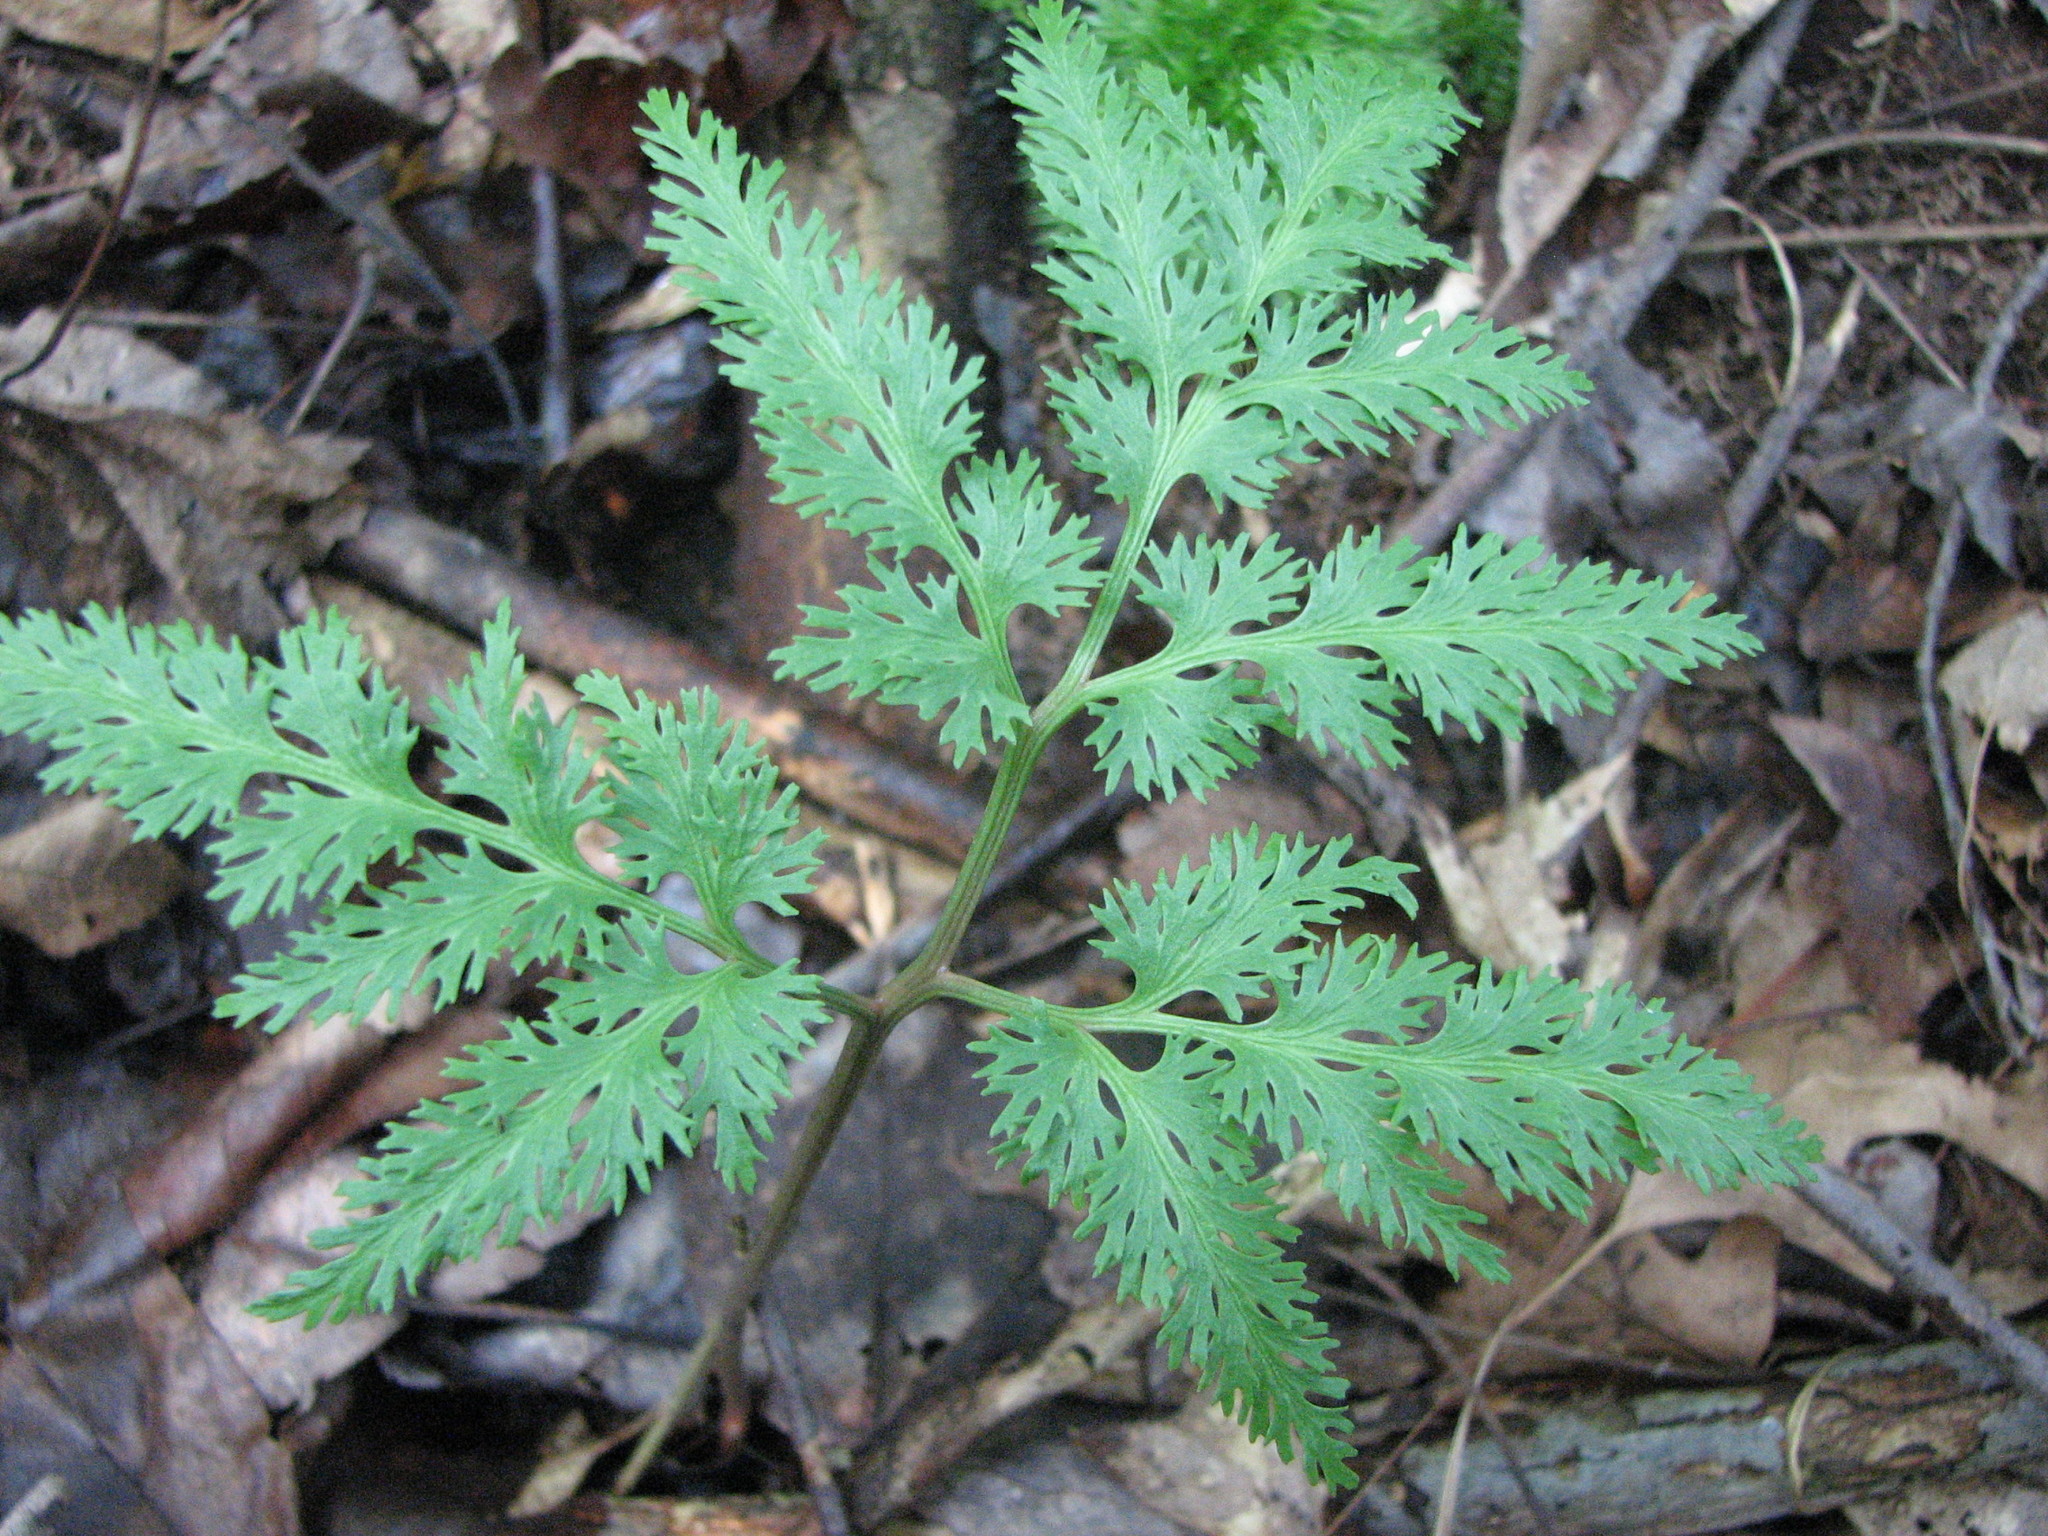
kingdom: Plantae
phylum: Tracheophyta
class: Polypodiopsida
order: Ophioglossales
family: Ophioglossaceae
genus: Sceptridium
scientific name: Sceptridium dissectum
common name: Cut-leaved grapefern
